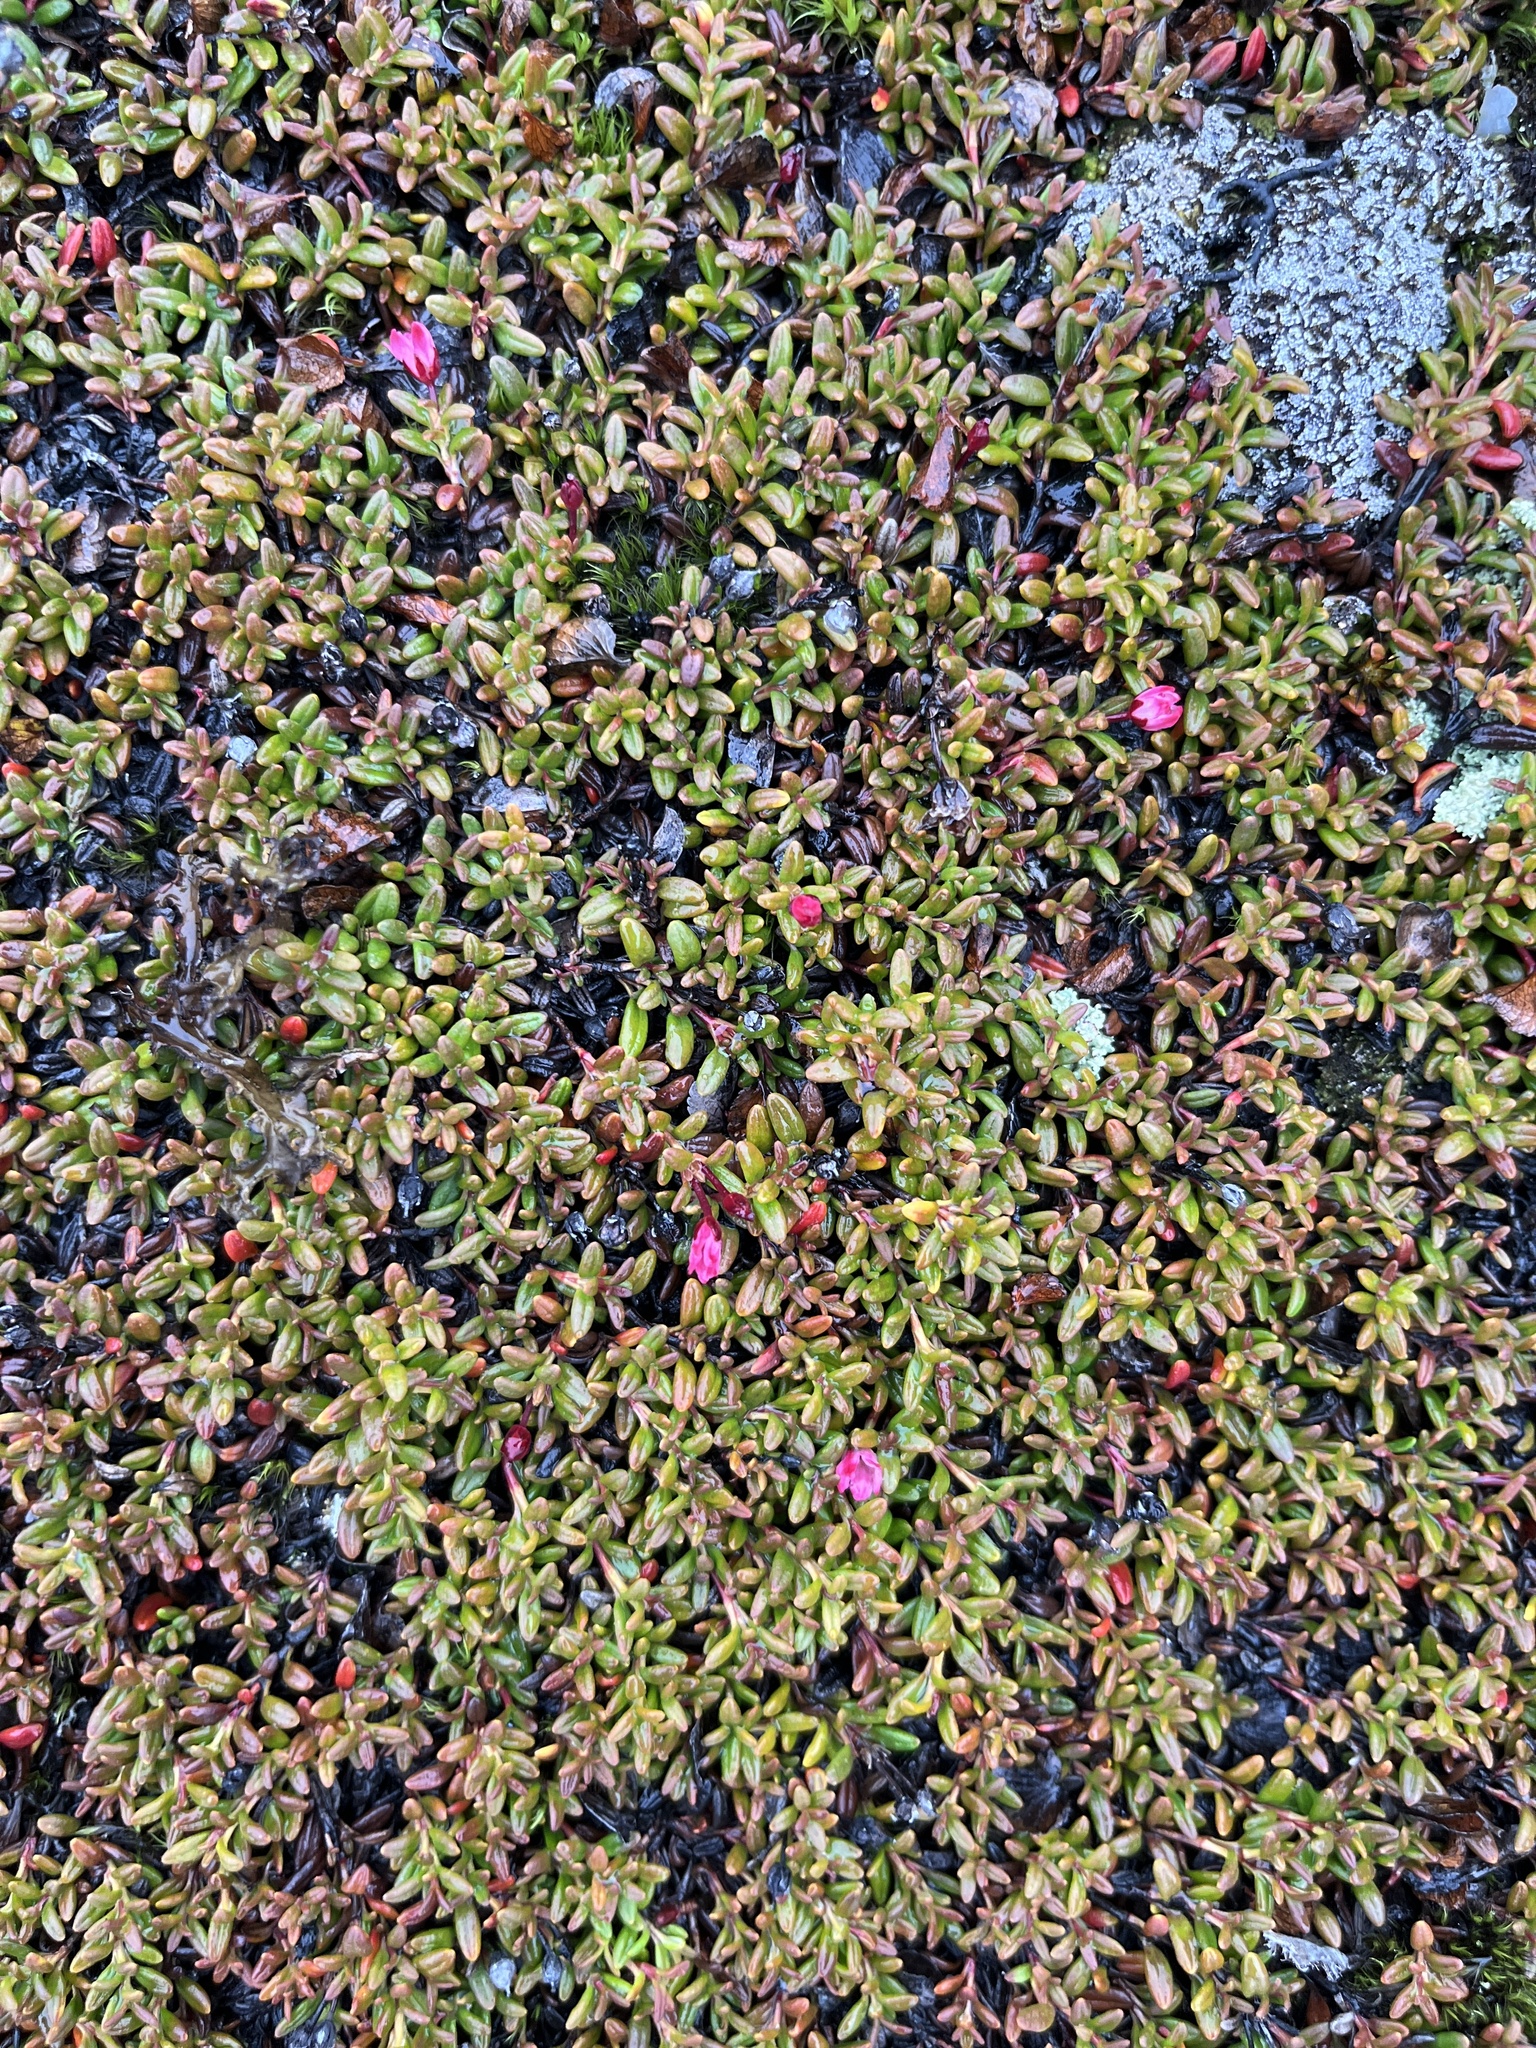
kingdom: Plantae
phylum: Tracheophyta
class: Magnoliopsida
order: Ericales
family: Ericaceae
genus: Kalmia
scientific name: Kalmia procumbens
